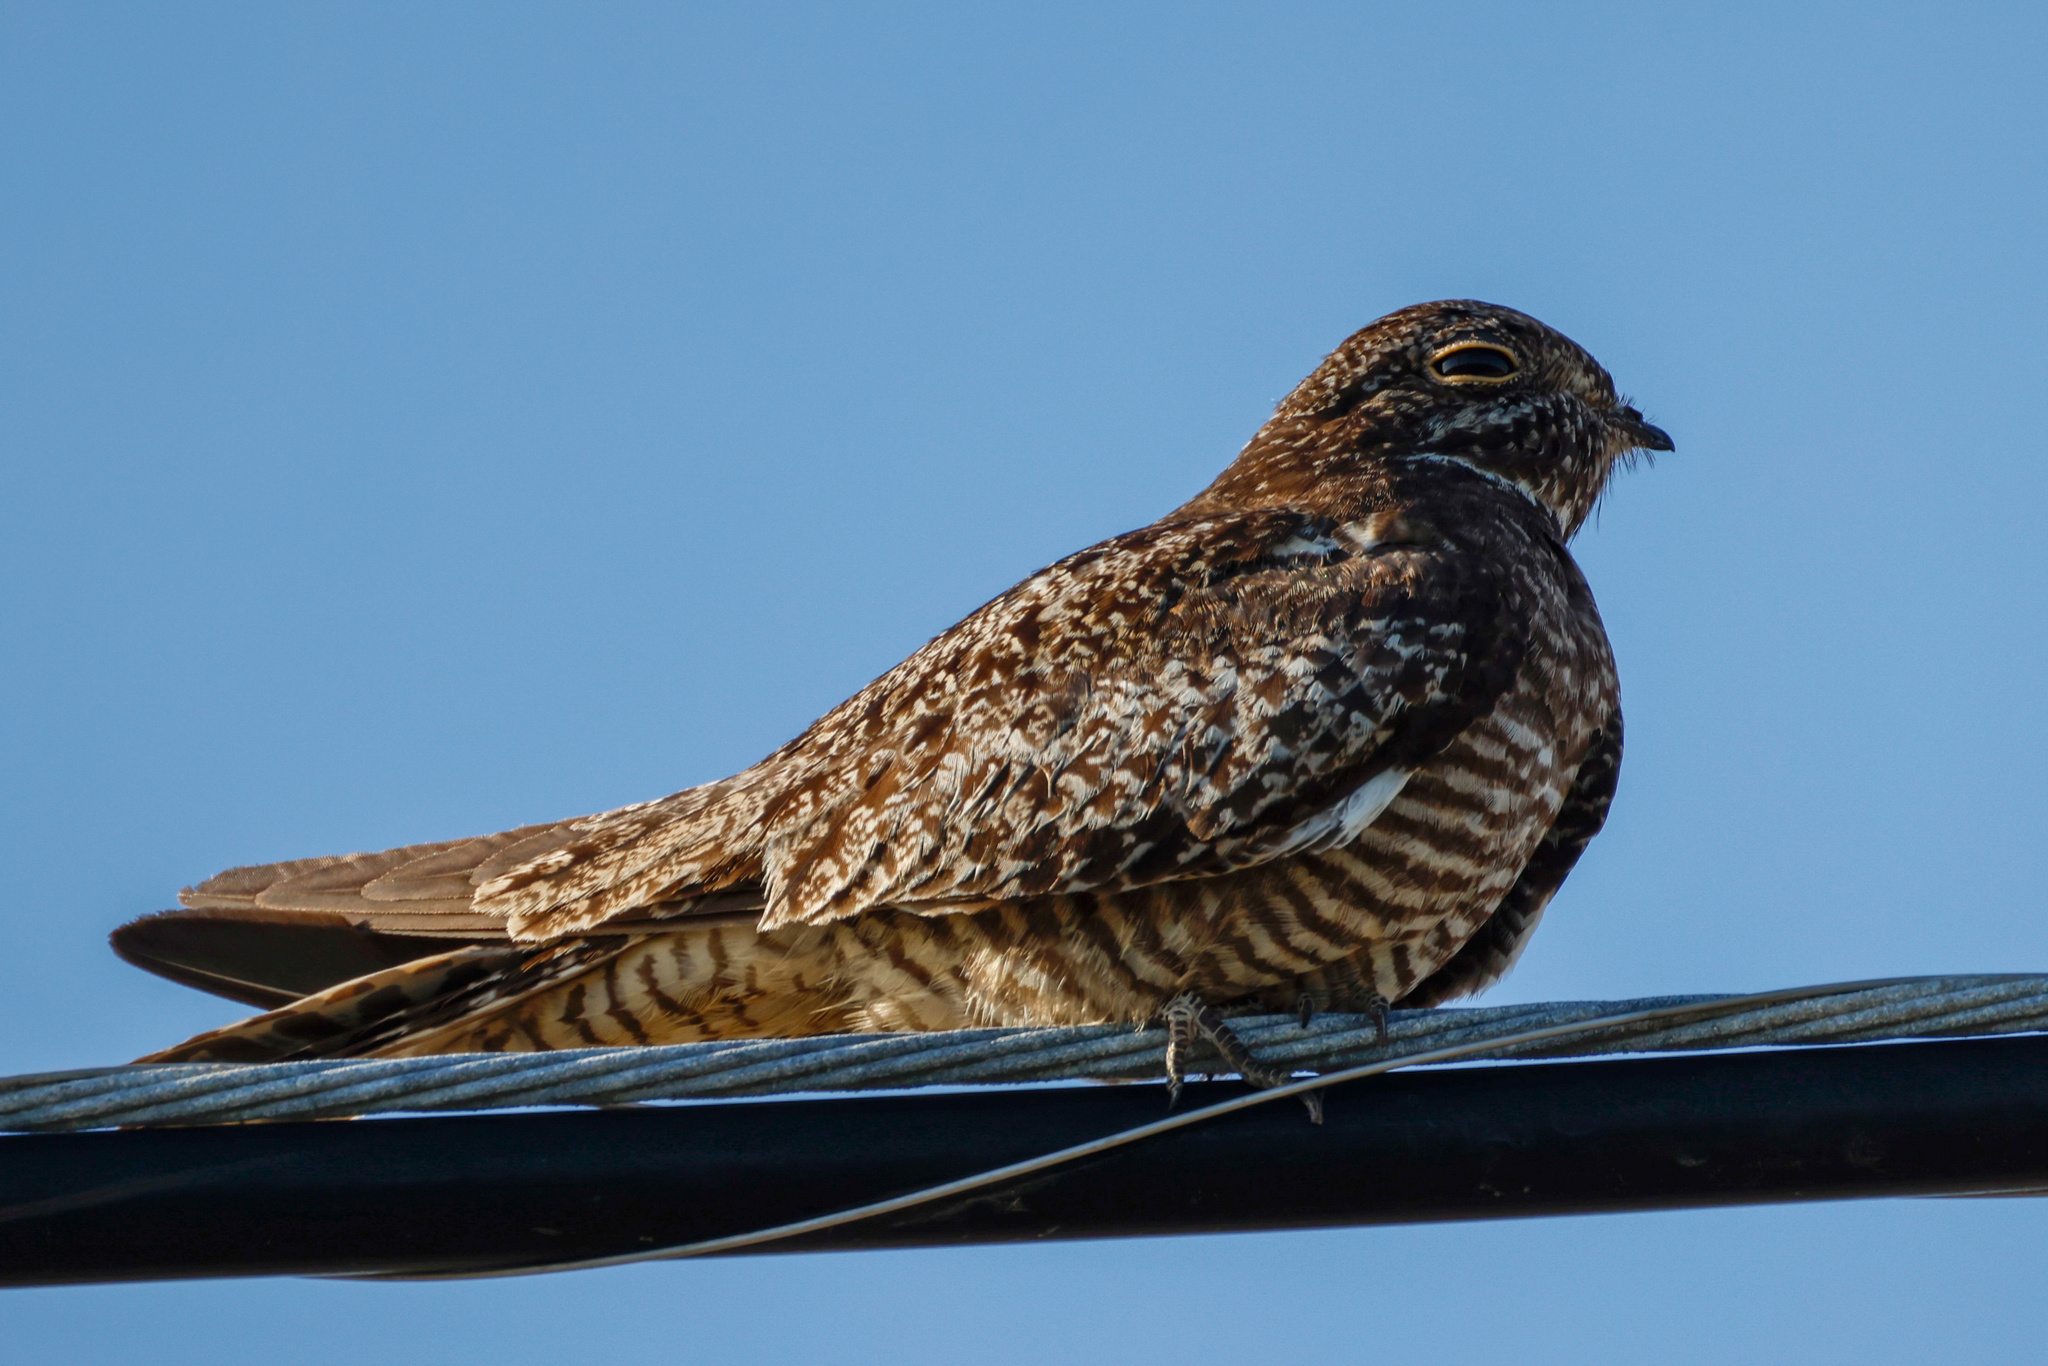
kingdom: Animalia
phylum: Chordata
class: Aves
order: Caprimulgiformes
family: Caprimulgidae
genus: Chordeiles
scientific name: Chordeiles minor
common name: Common nighthawk
